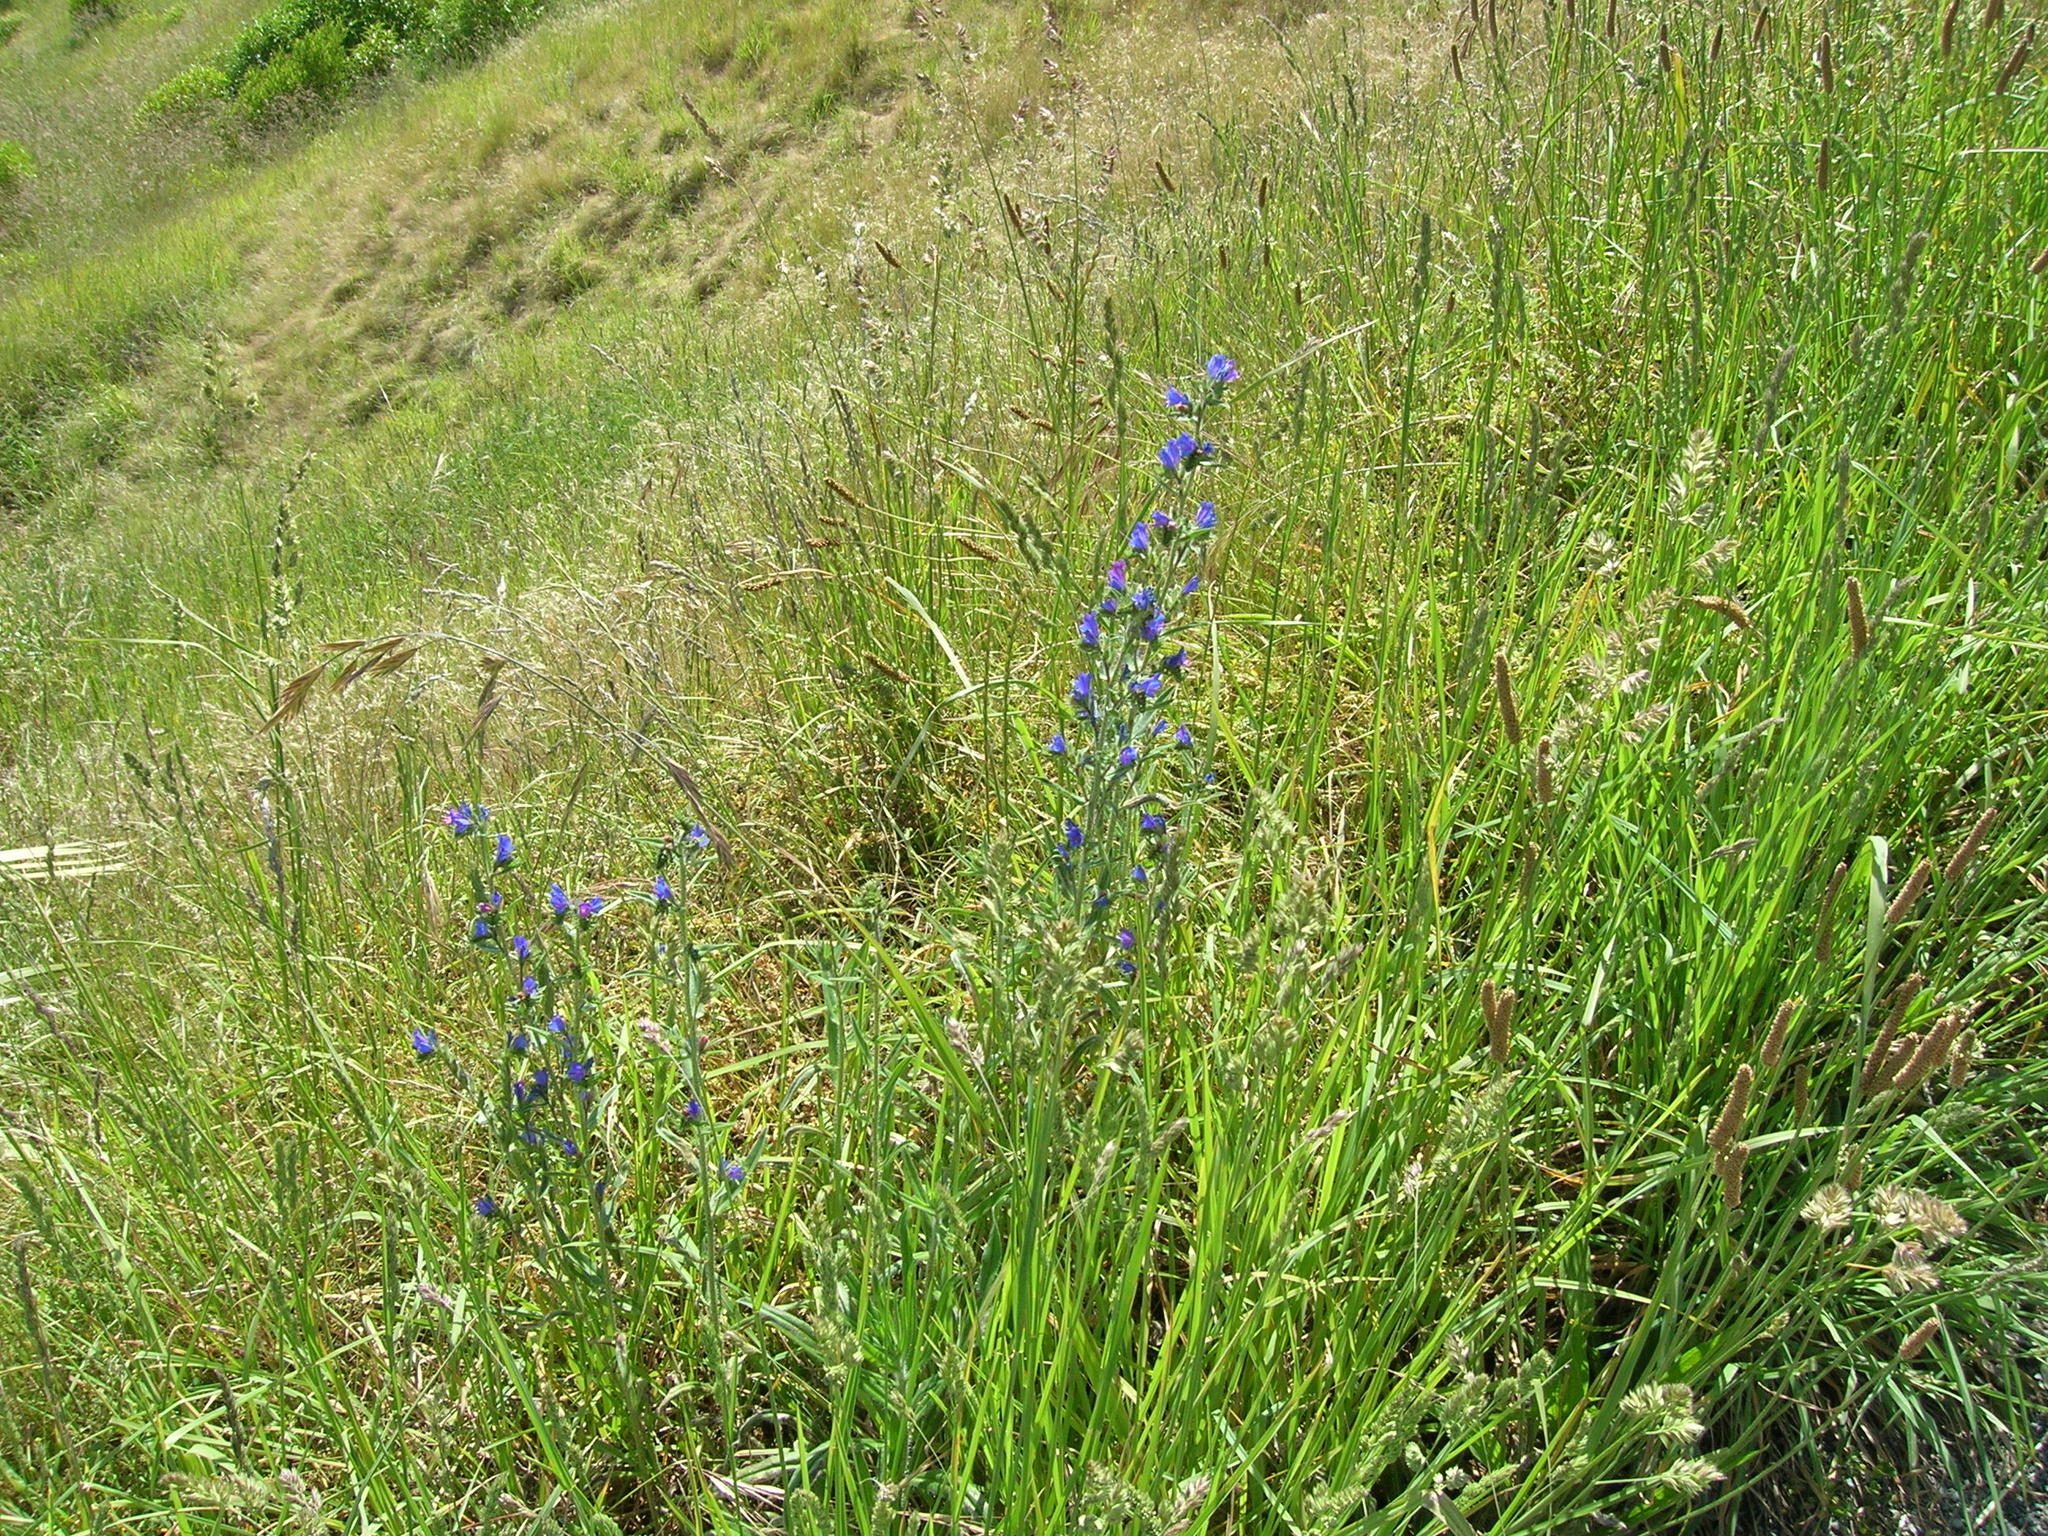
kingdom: Plantae
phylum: Tracheophyta
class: Magnoliopsida
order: Boraginales
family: Boraginaceae
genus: Echium
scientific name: Echium vulgare
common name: Common viper's bugloss
